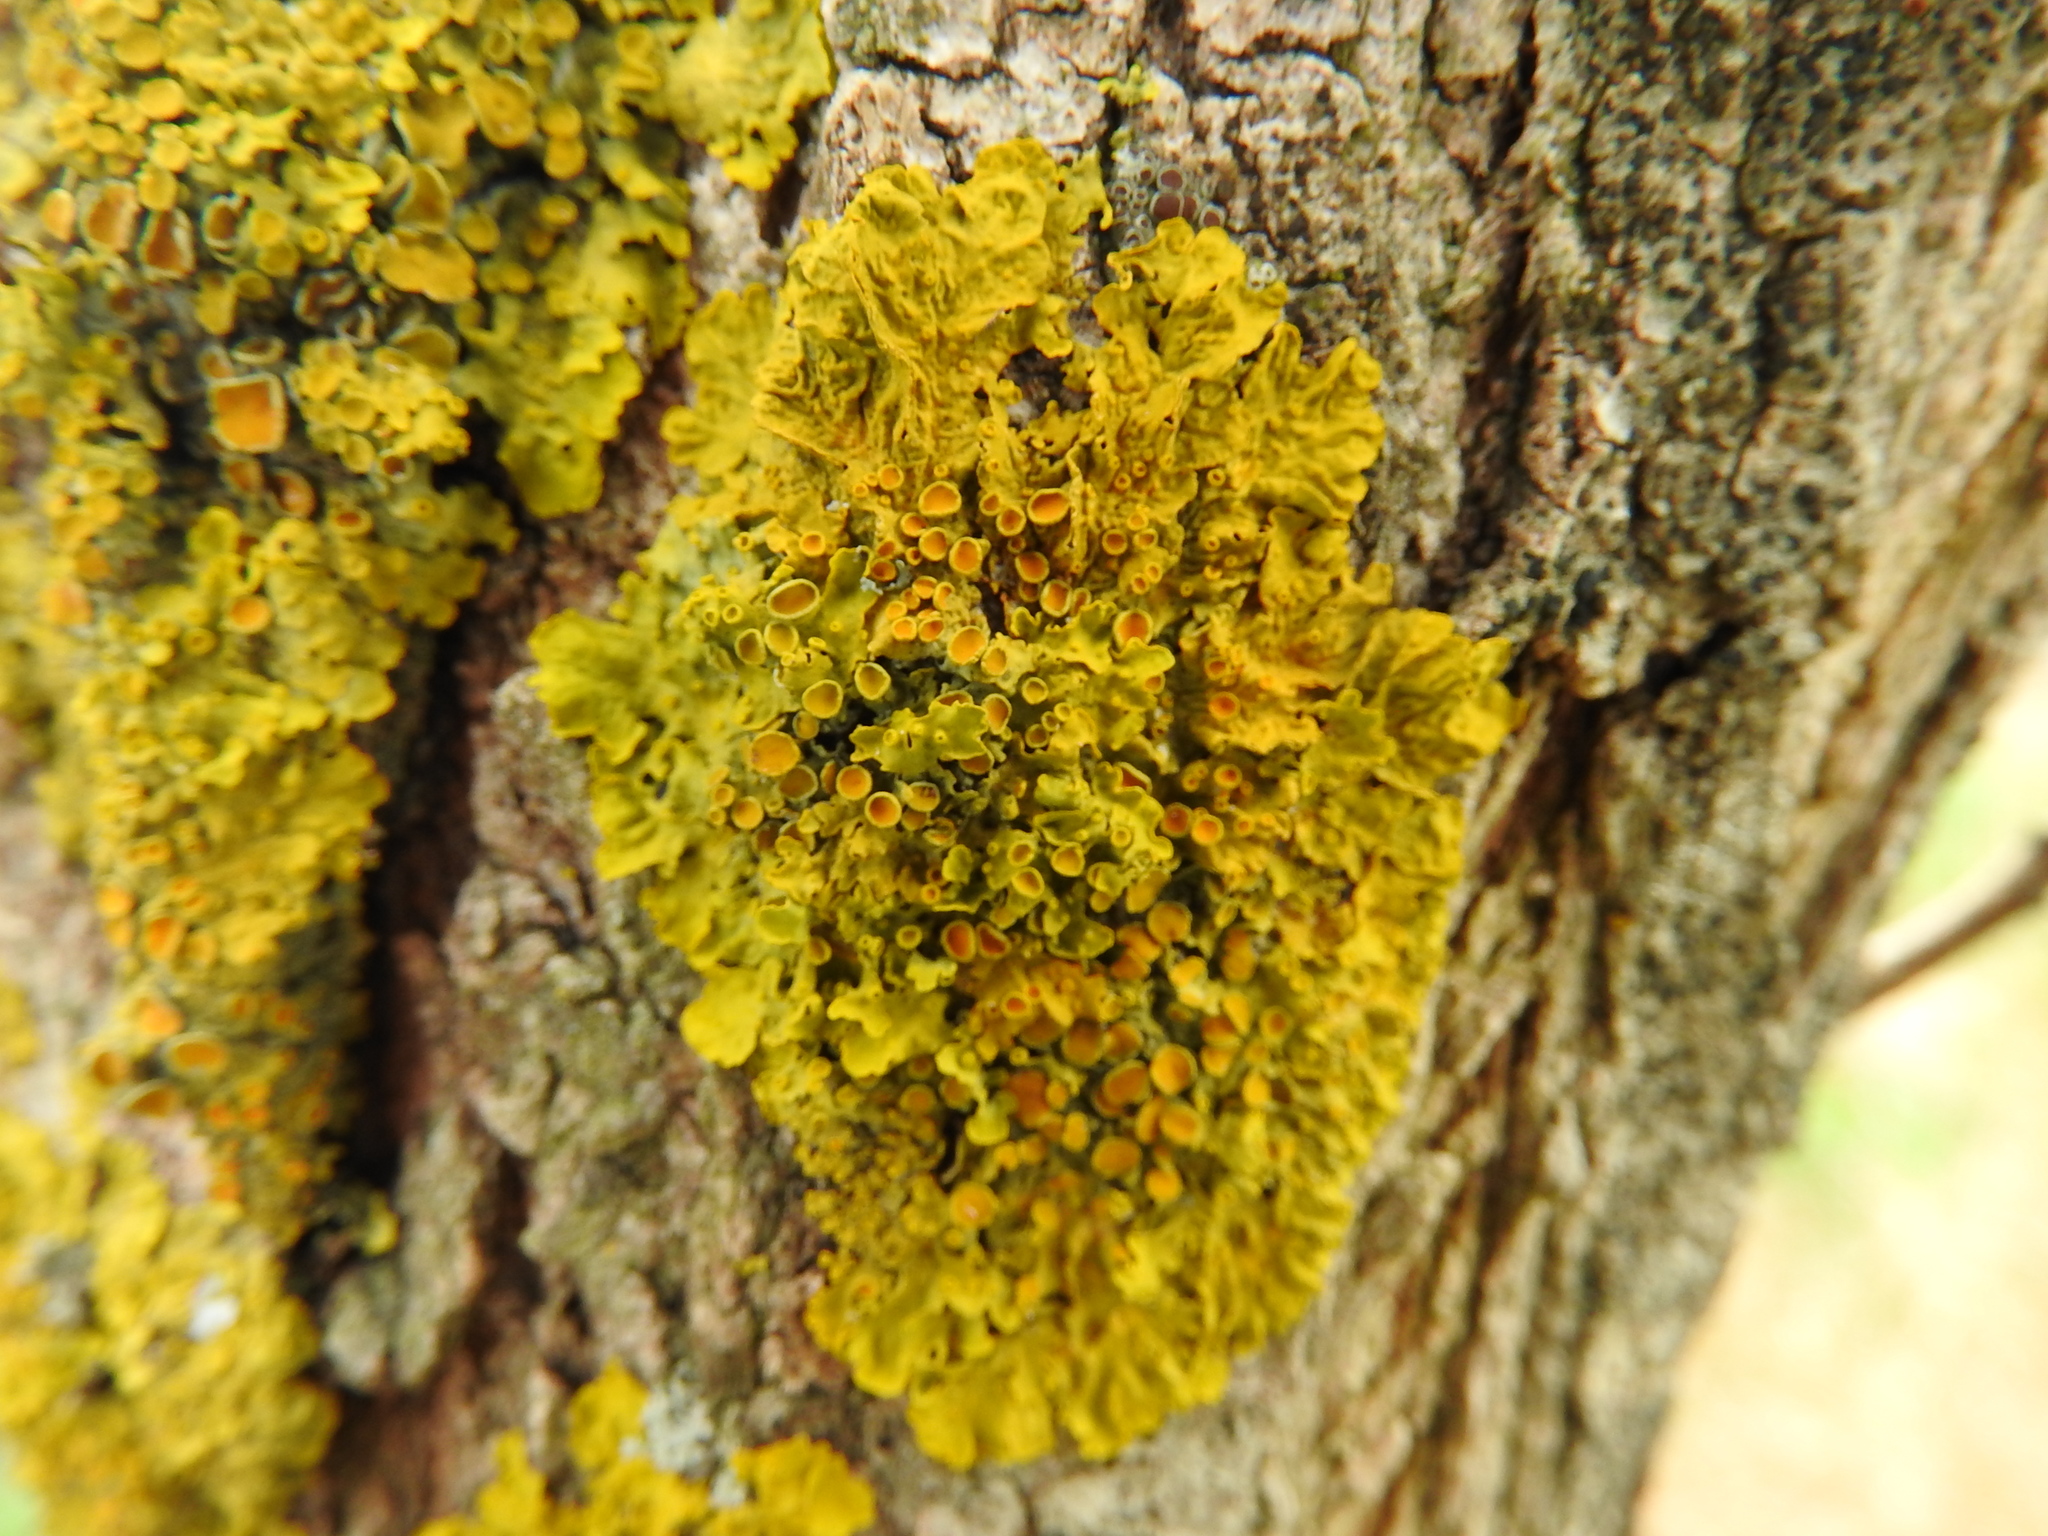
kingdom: Fungi
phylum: Ascomycota
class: Lecanoromycetes
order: Teloschistales
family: Teloschistaceae
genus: Xanthoria
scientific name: Xanthoria parietina
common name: Common orange lichen
